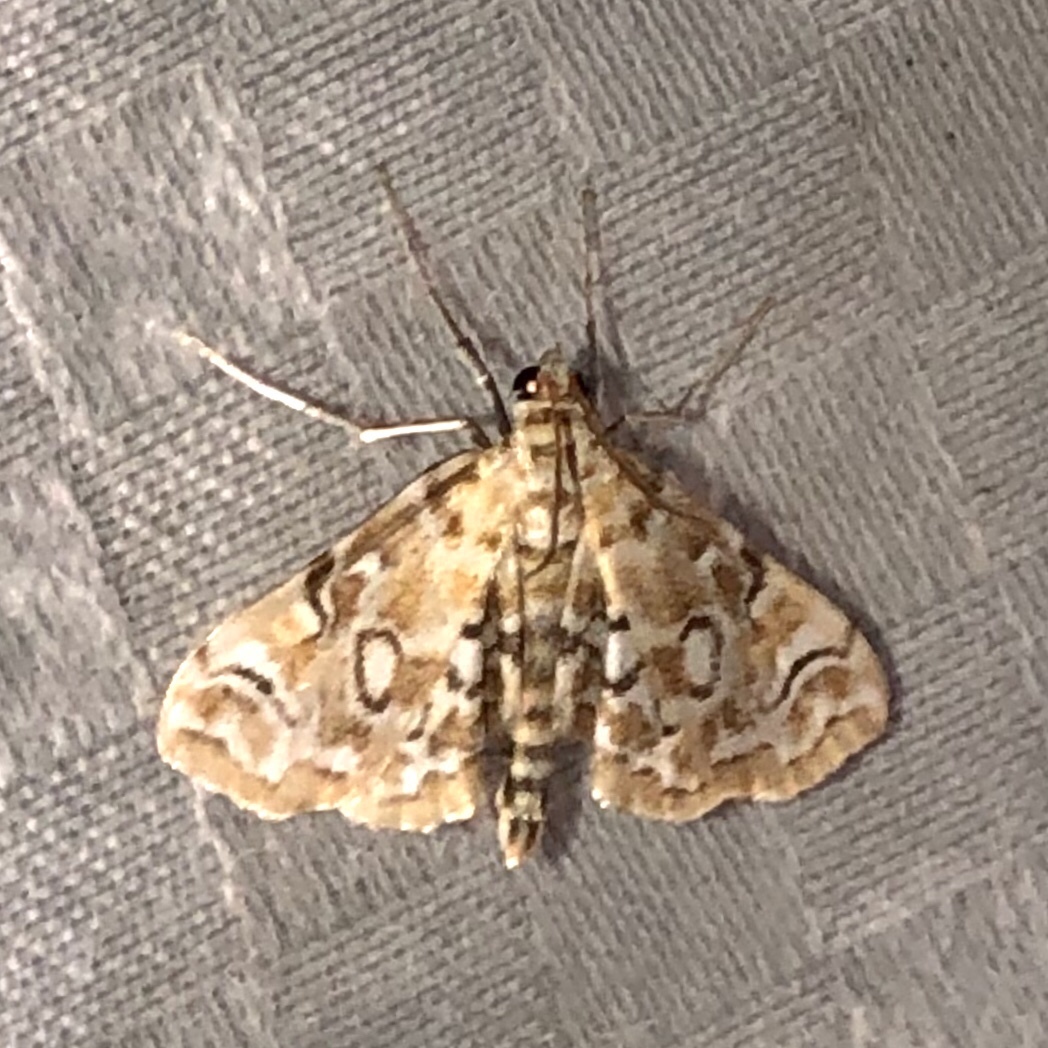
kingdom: Animalia
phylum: Arthropoda
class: Insecta
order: Lepidoptera
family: Crambidae
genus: Elophila
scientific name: Elophila icciusalis
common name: Pondside pyralid moth
